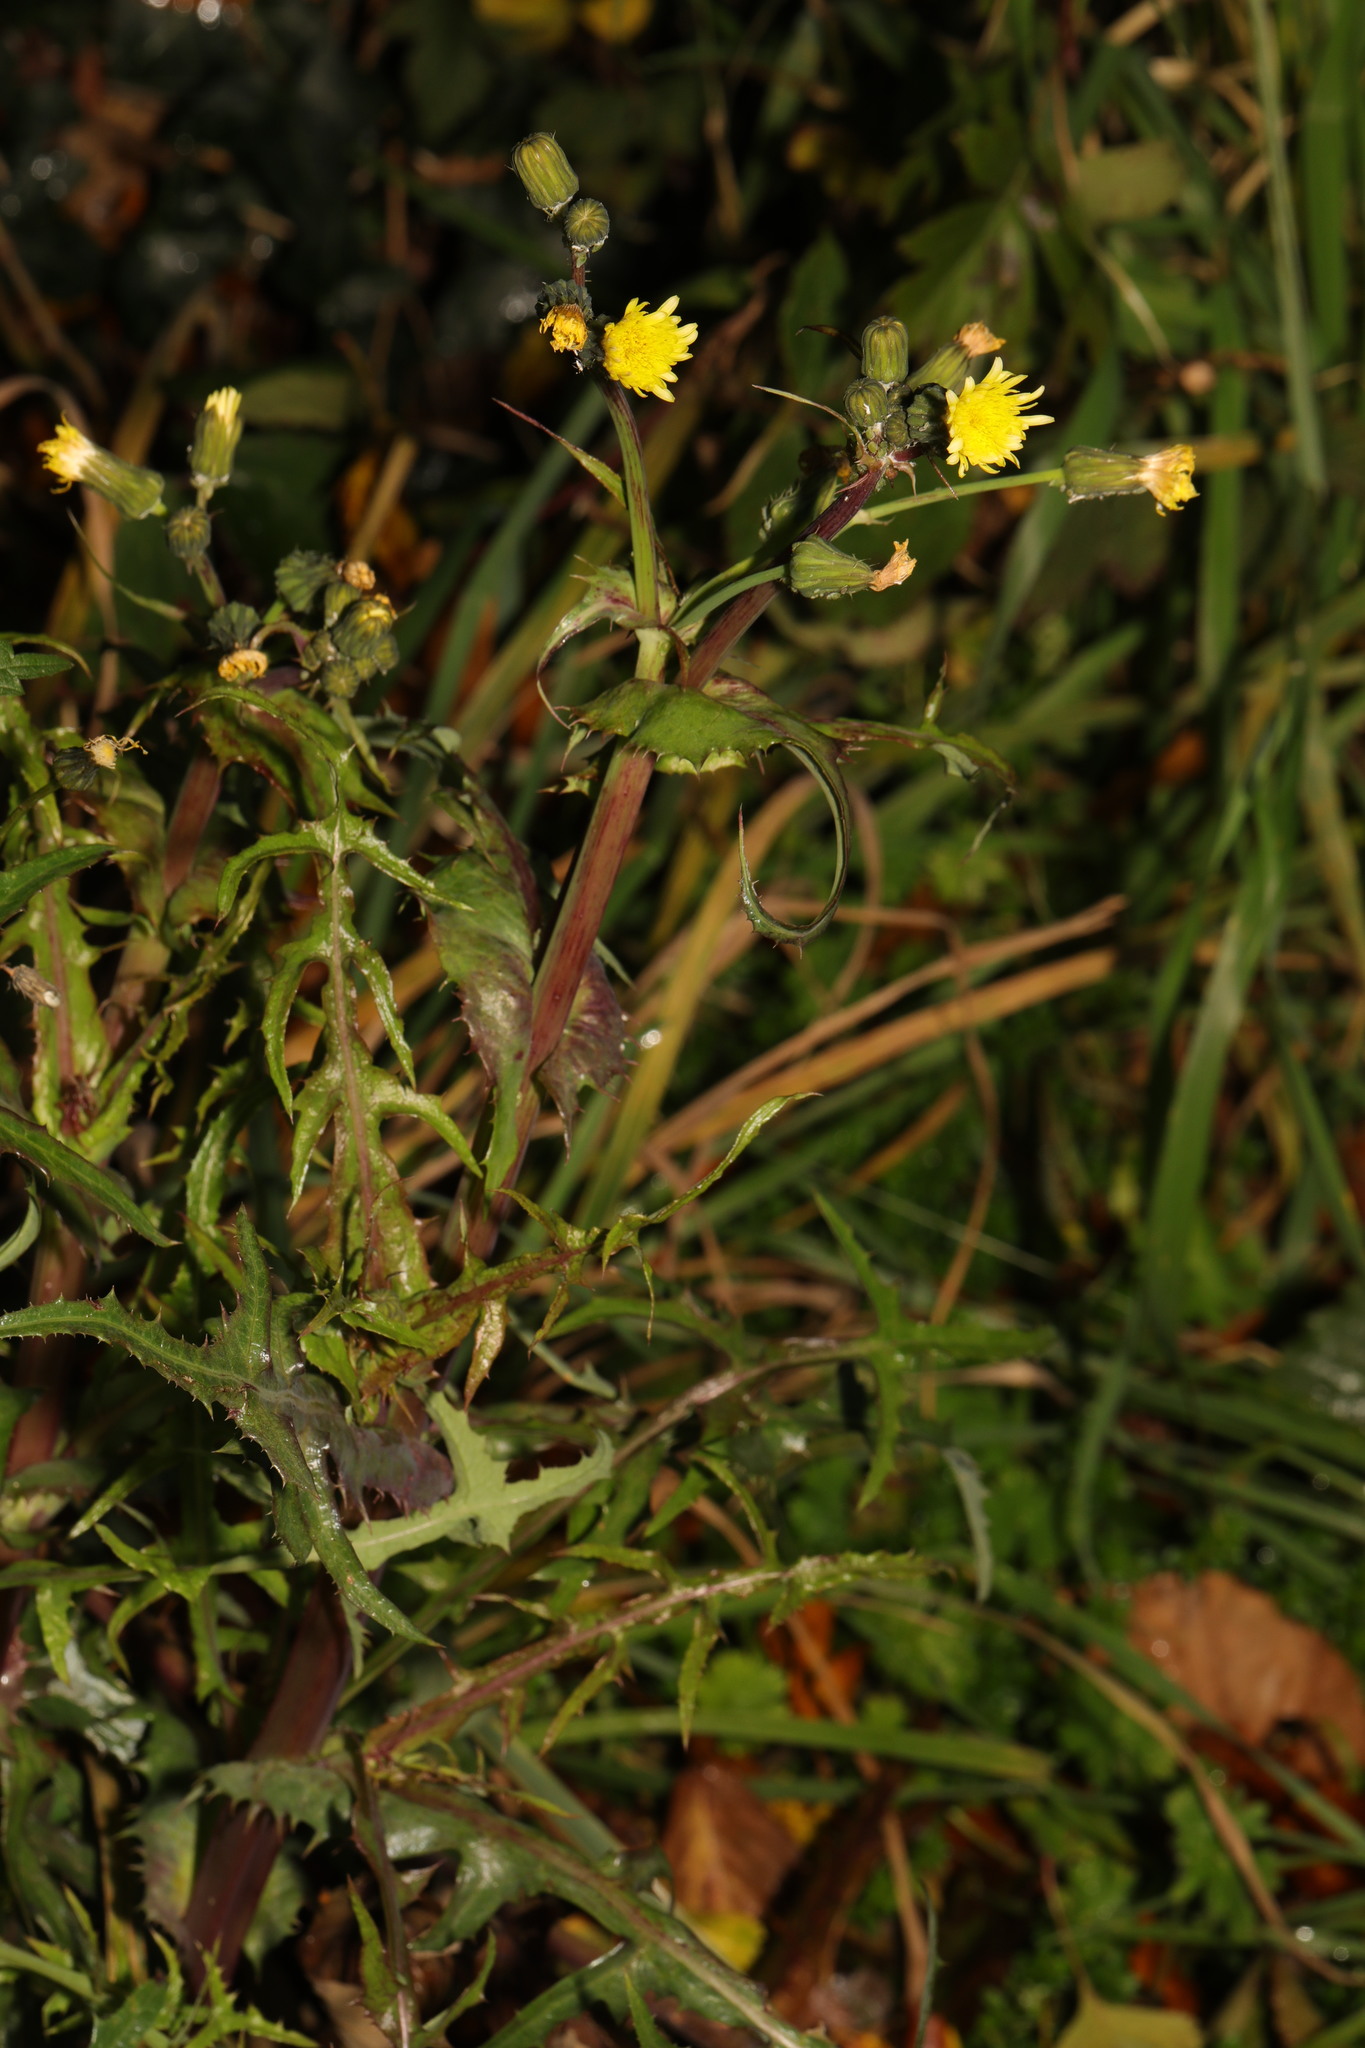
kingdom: Plantae
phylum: Tracheophyta
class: Magnoliopsida
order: Asterales
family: Asteraceae
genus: Sonchus
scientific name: Sonchus oleraceus
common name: Common sowthistle
